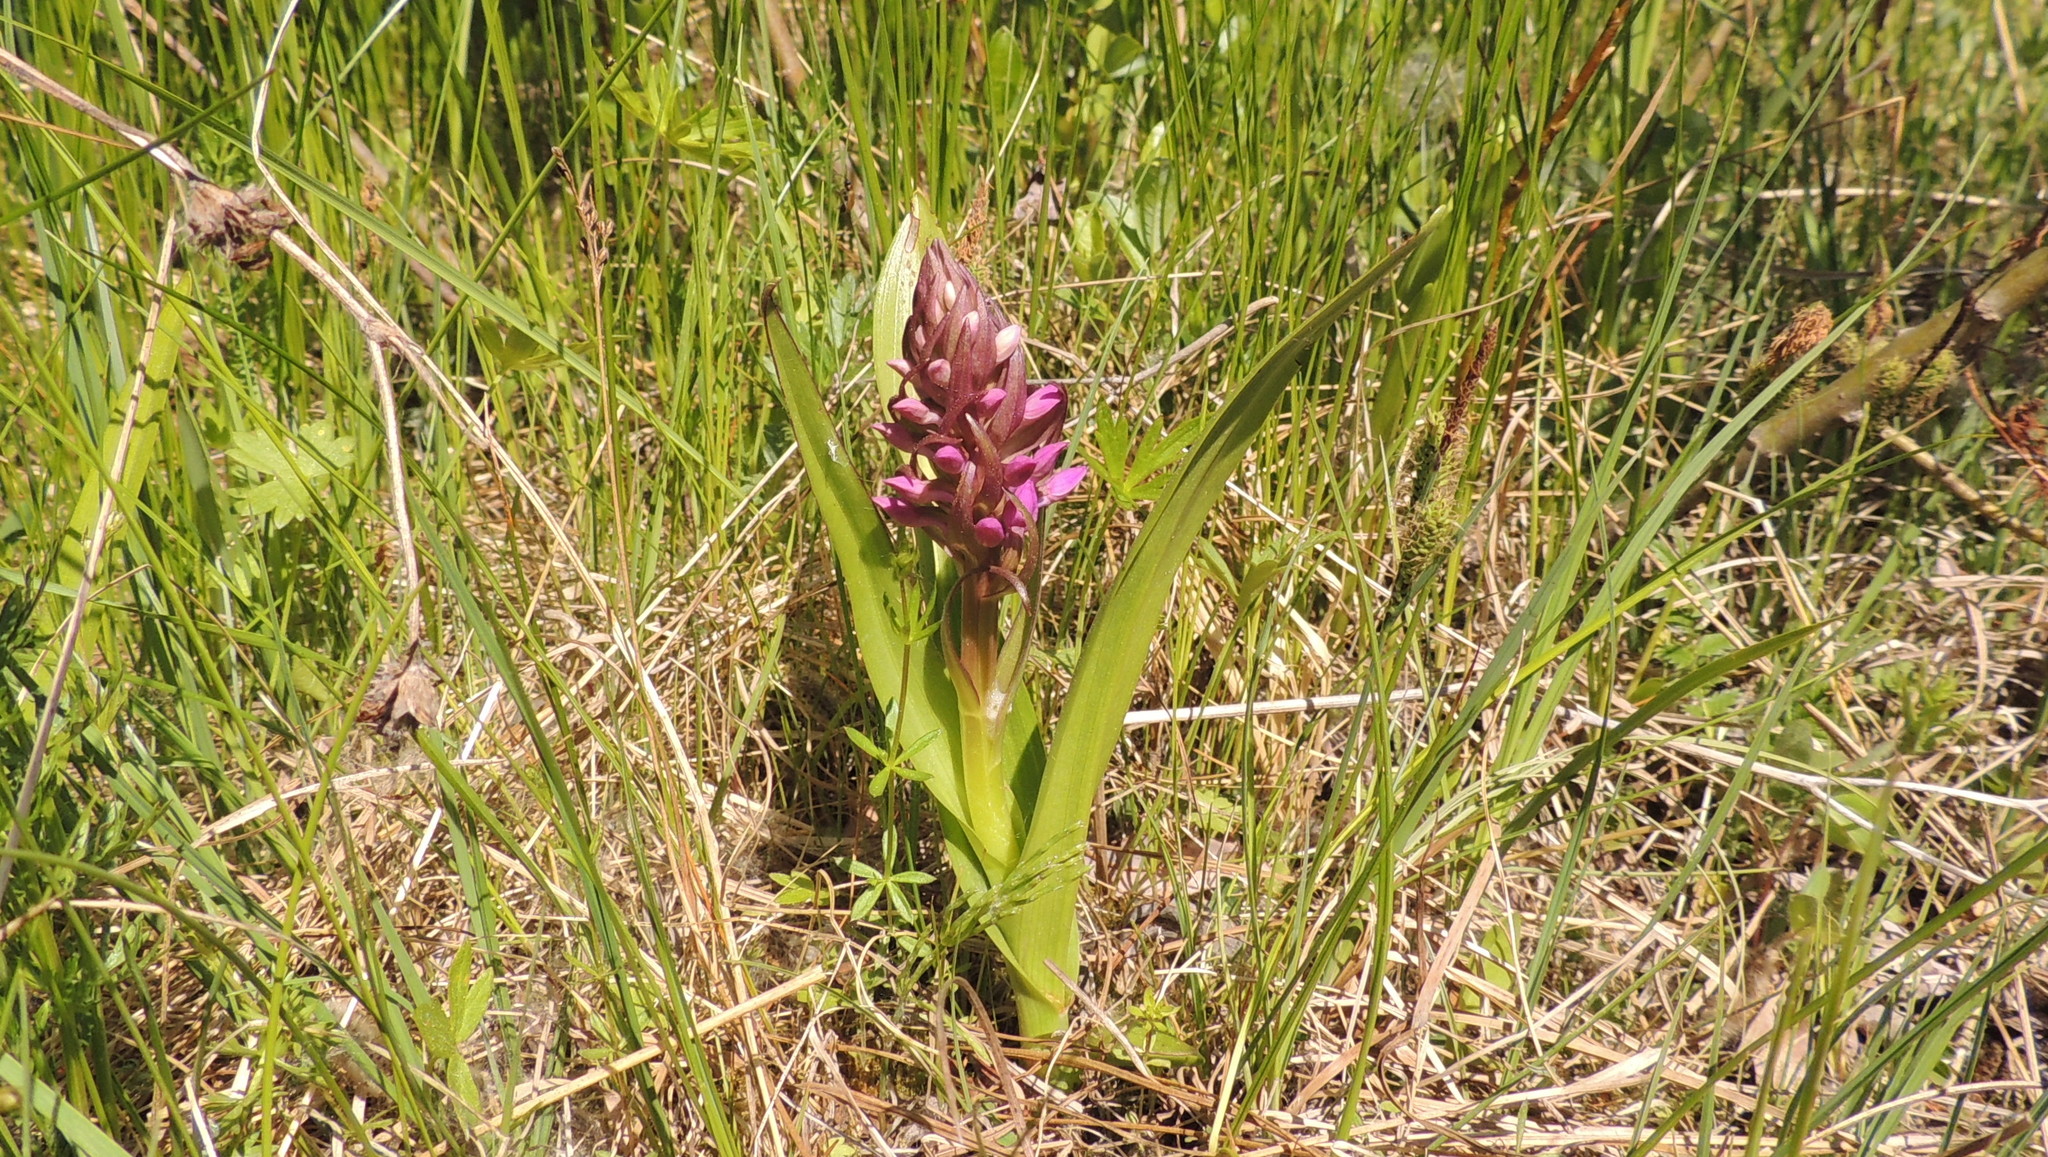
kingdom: Plantae
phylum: Tracheophyta
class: Liliopsida
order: Asparagales
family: Orchidaceae
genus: Dactylorhiza
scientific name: Dactylorhiza incarnata
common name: Early marsh-orchid
